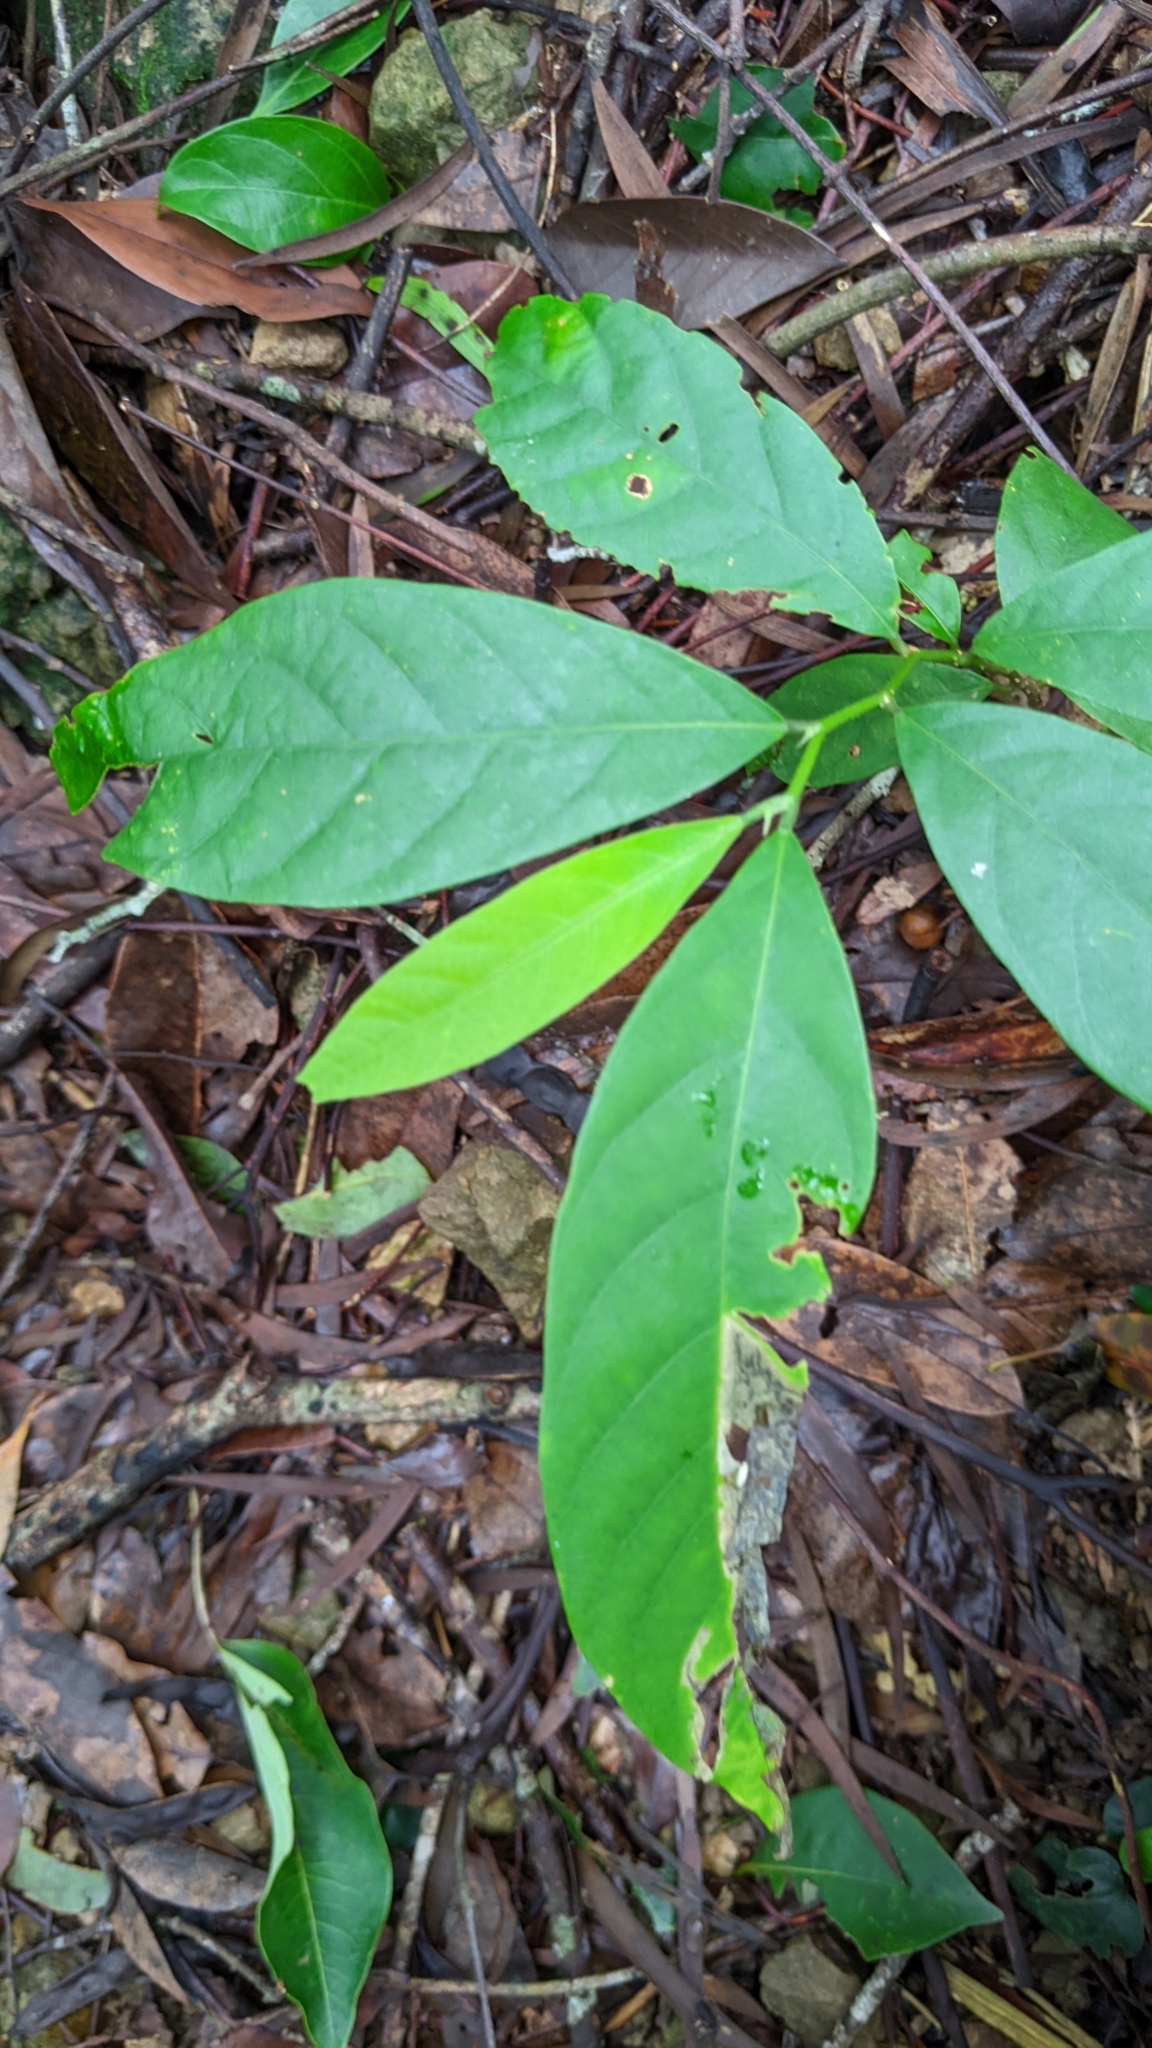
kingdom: Plantae
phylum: Tracheophyta
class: Magnoliopsida
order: Malpighiales
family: Phyllanthaceae
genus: Bridelia
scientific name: Bridelia balansae
